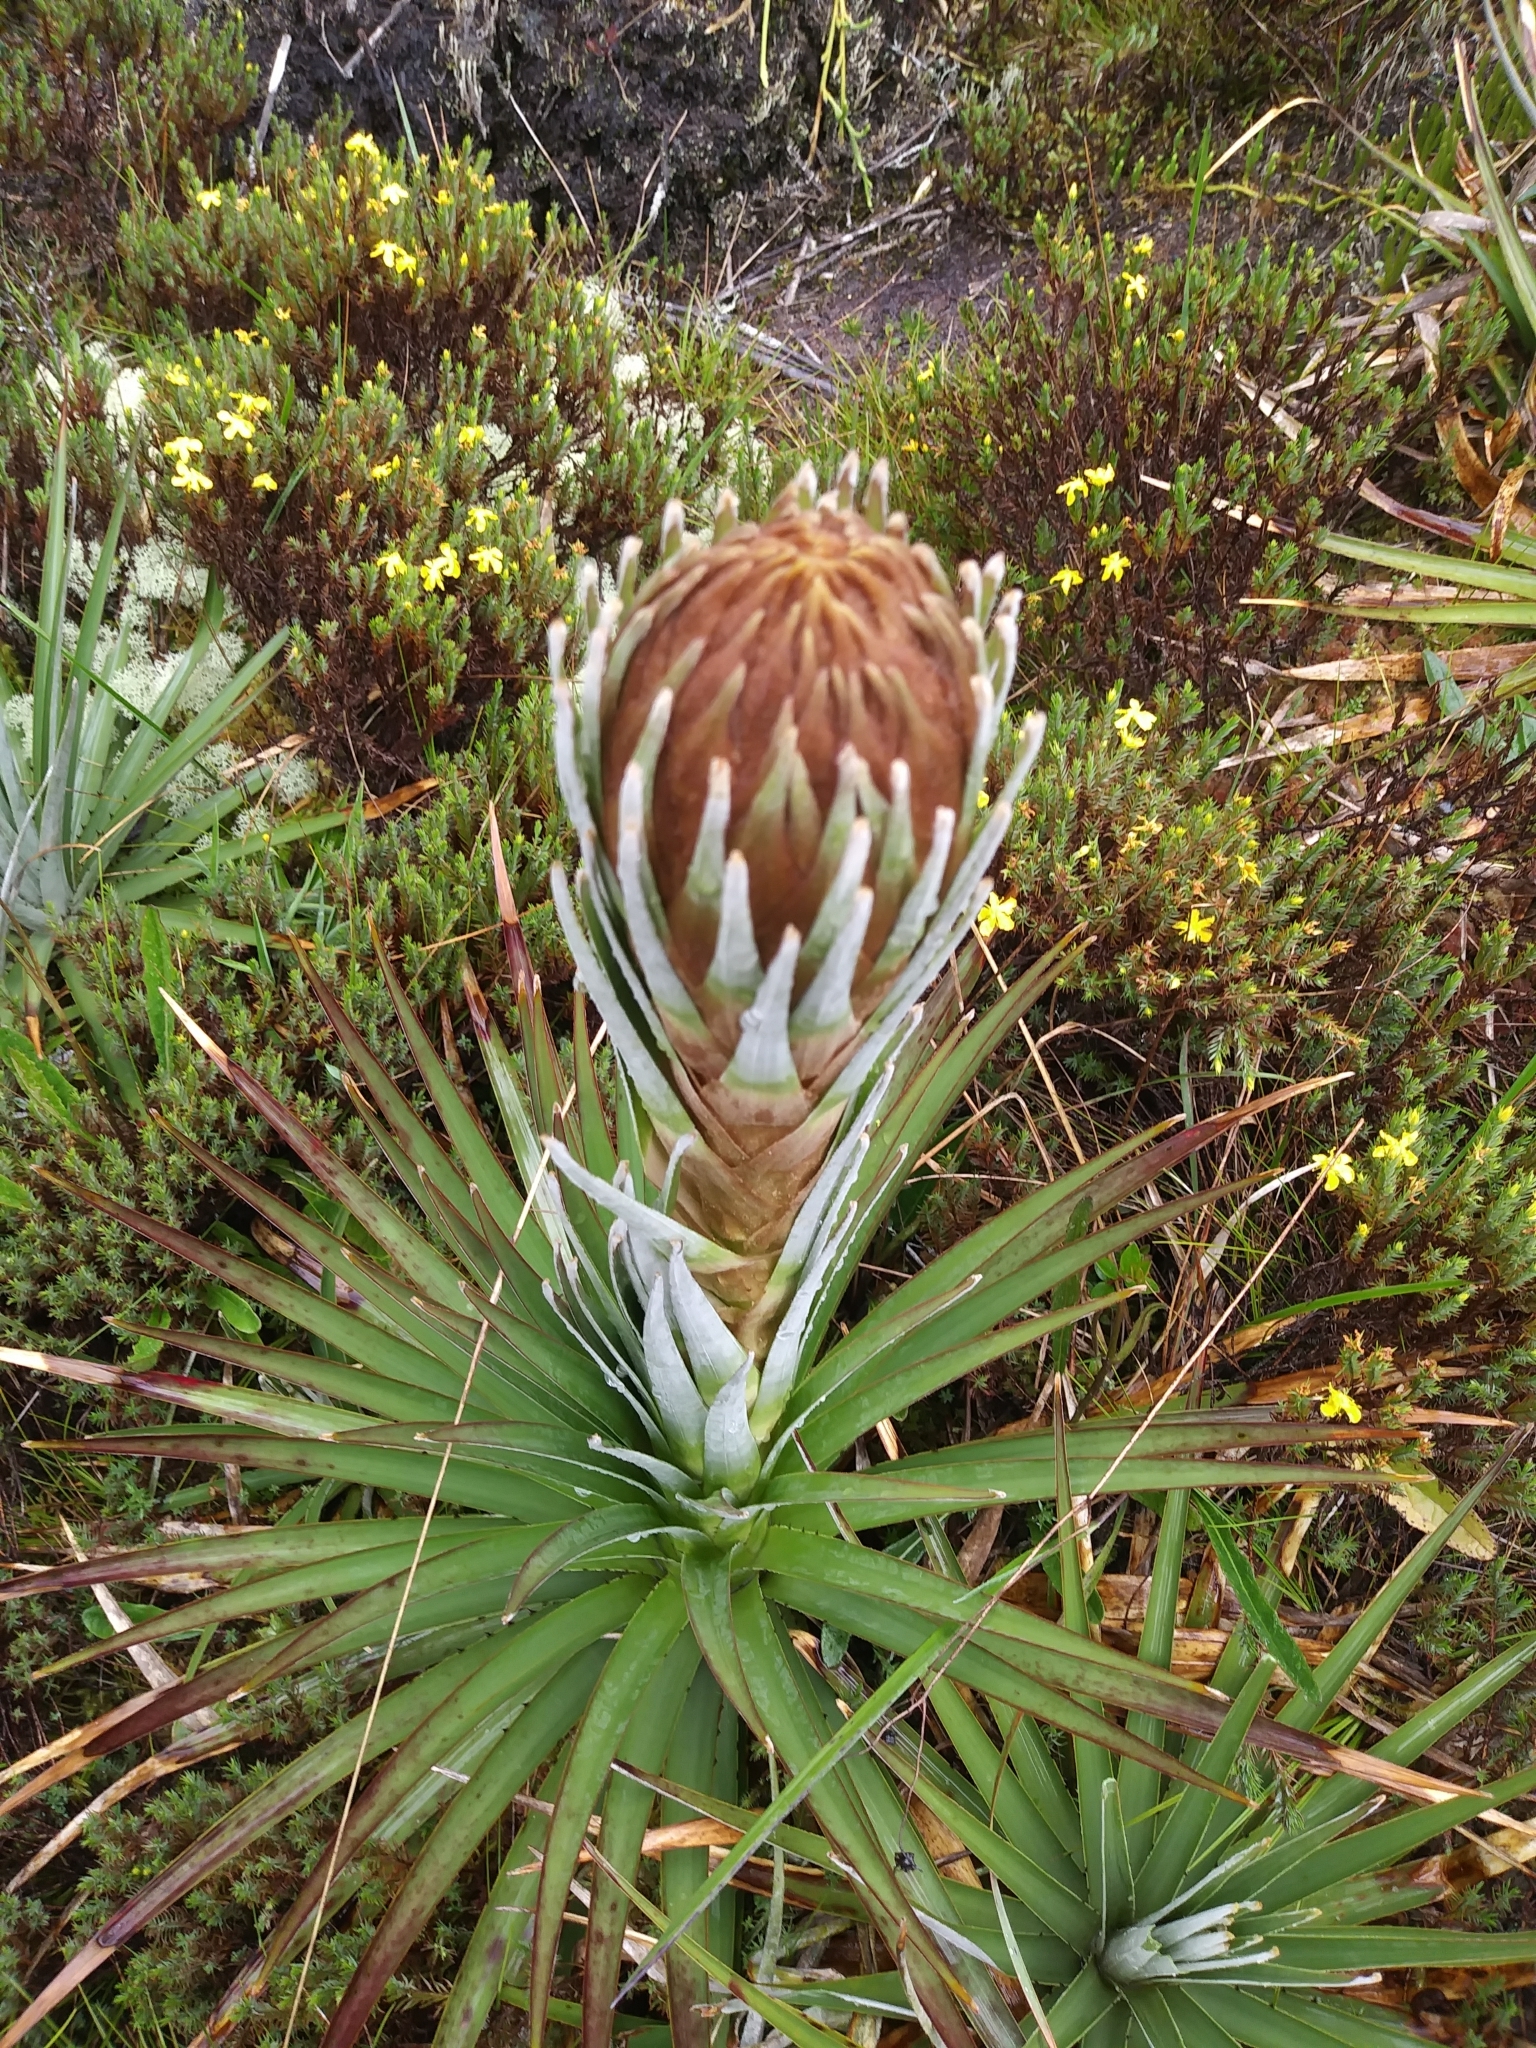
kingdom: Plantae
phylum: Tracheophyta
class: Liliopsida
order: Poales
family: Bromeliaceae
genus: Puya
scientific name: Puya dasylirioides
